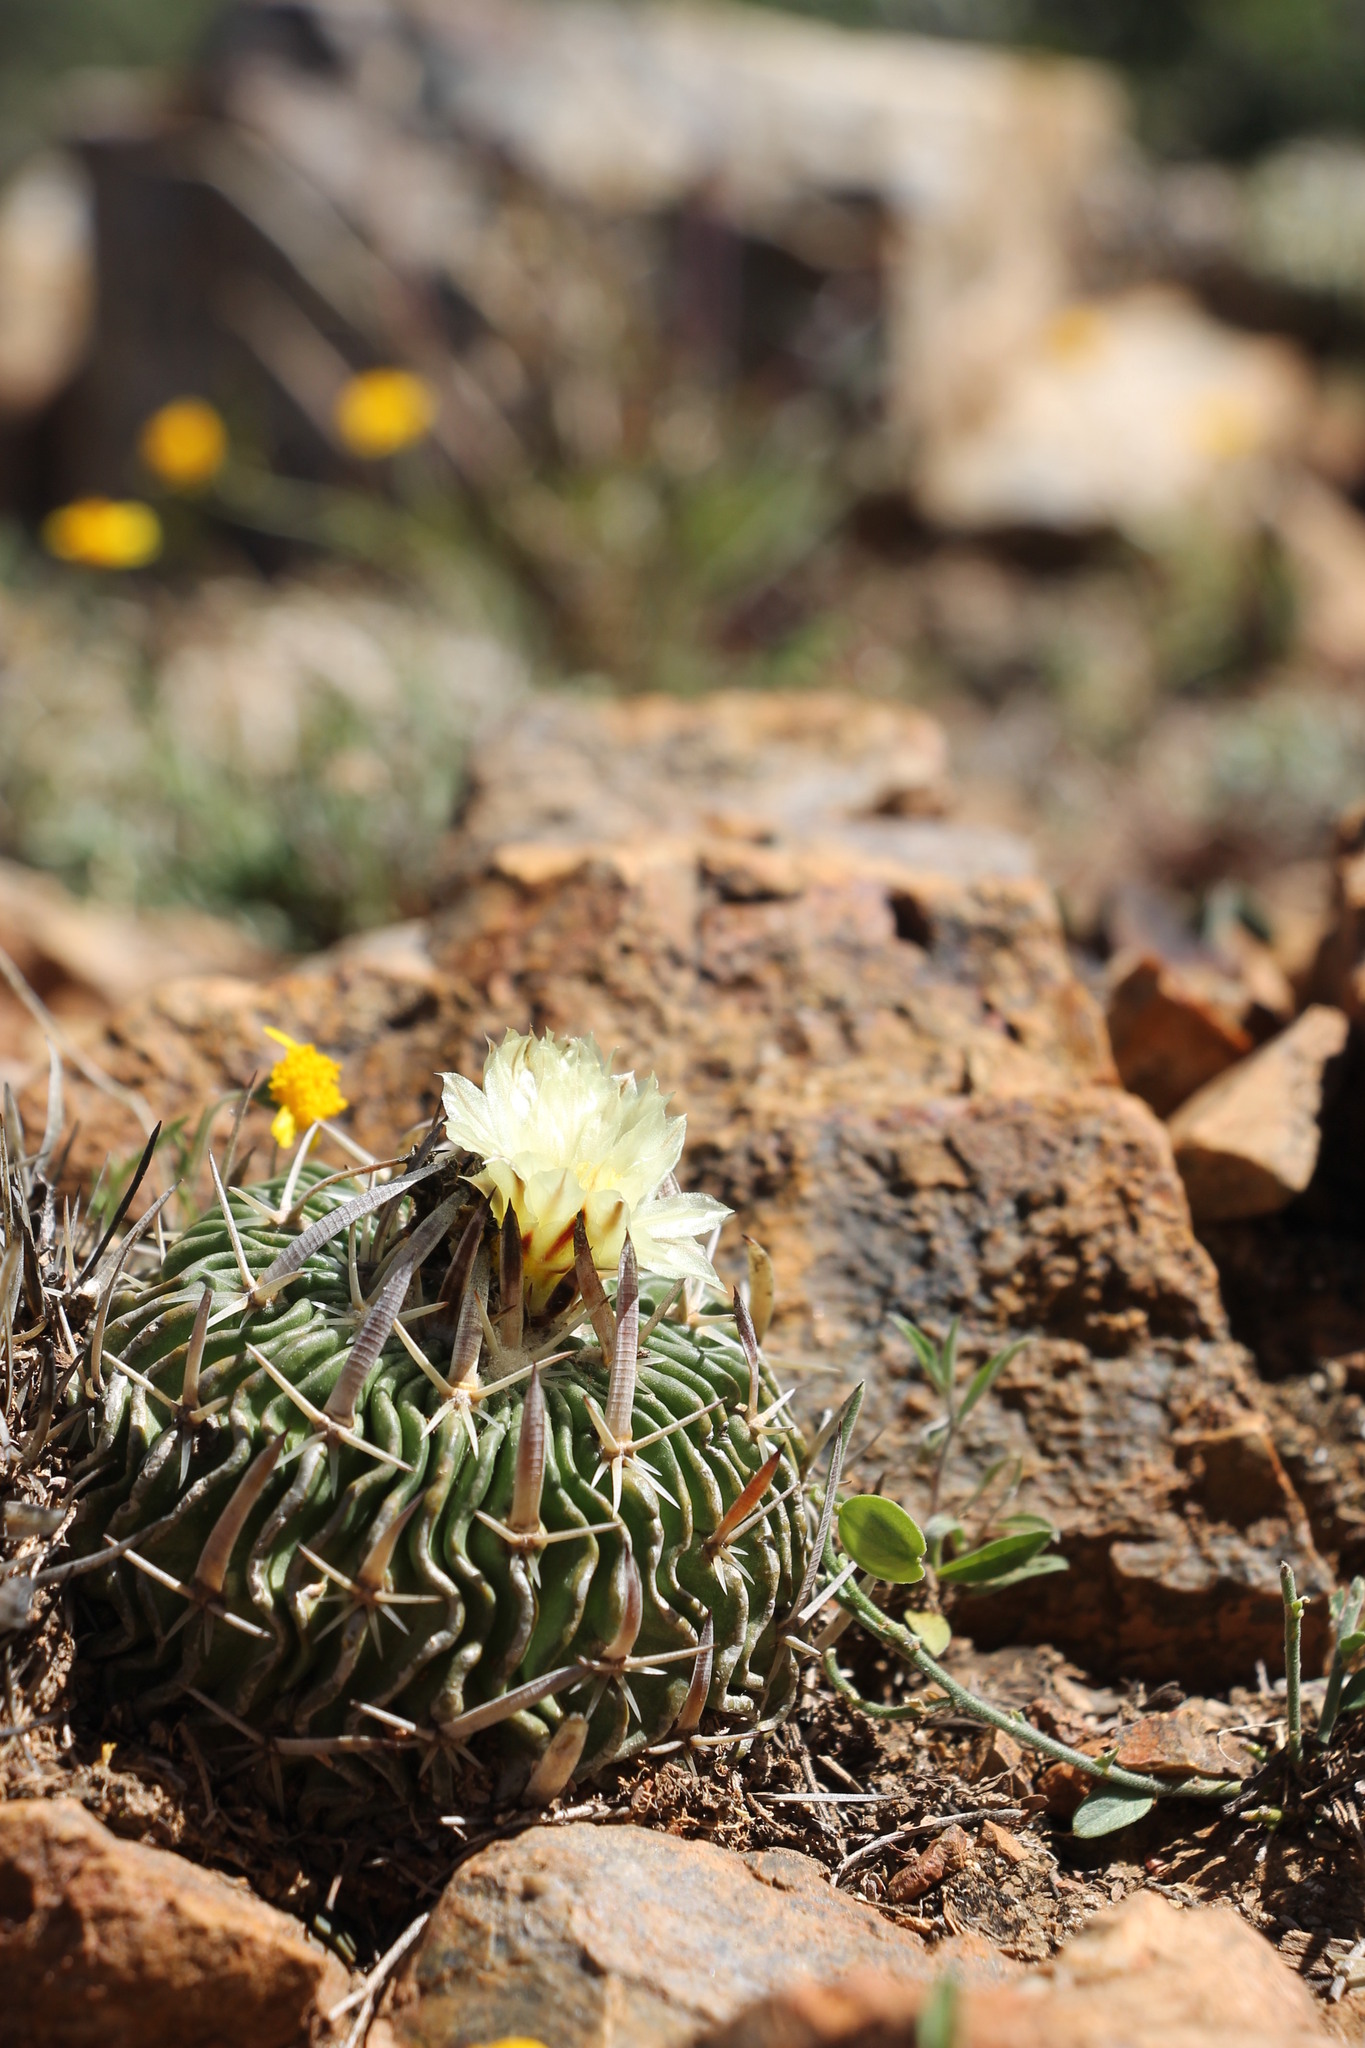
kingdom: Plantae
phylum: Tracheophyta
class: Magnoliopsida
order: Caryophyllales
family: Cactaceae
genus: Stenocactus
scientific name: Stenocactus phyllacanthus
